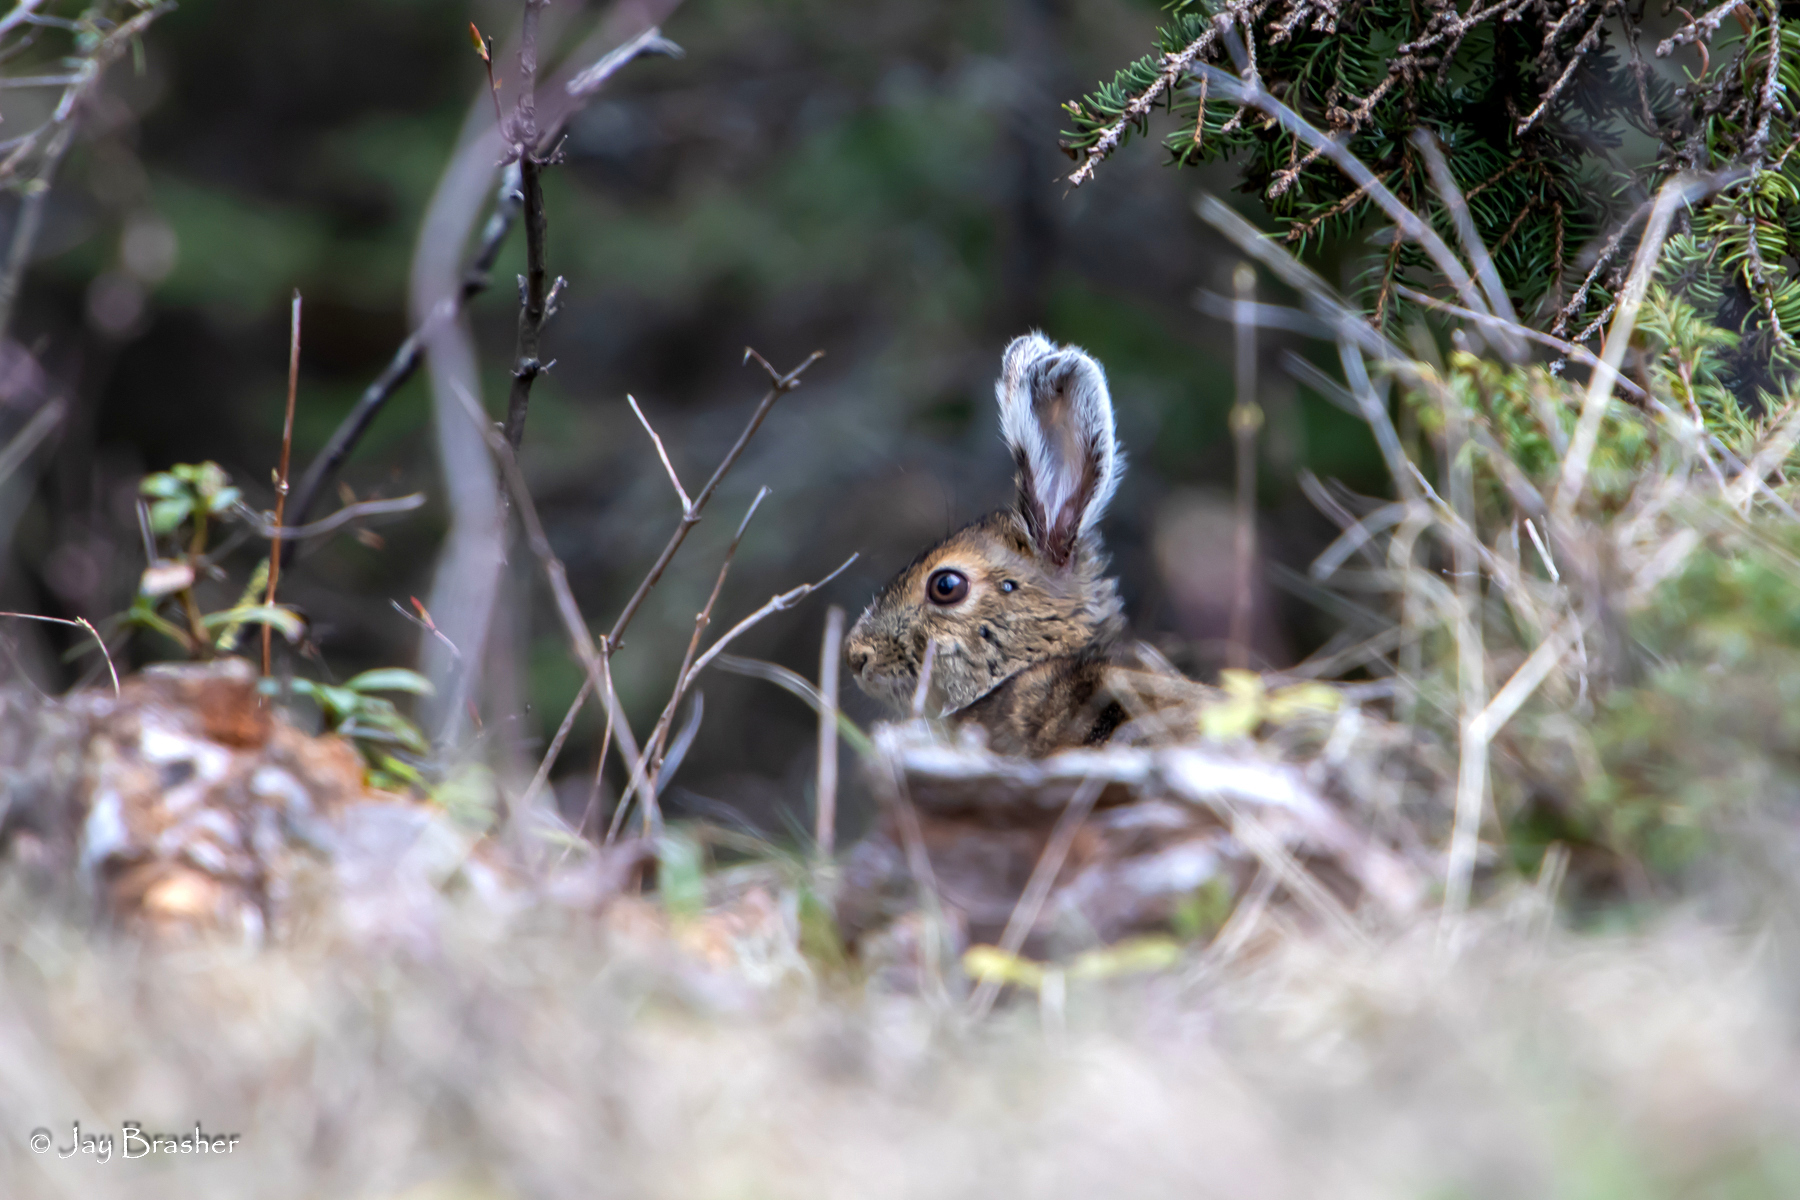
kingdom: Animalia
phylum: Chordata
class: Mammalia
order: Lagomorpha
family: Leporidae
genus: Lepus
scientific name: Lepus americanus
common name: Snowshoe hare
